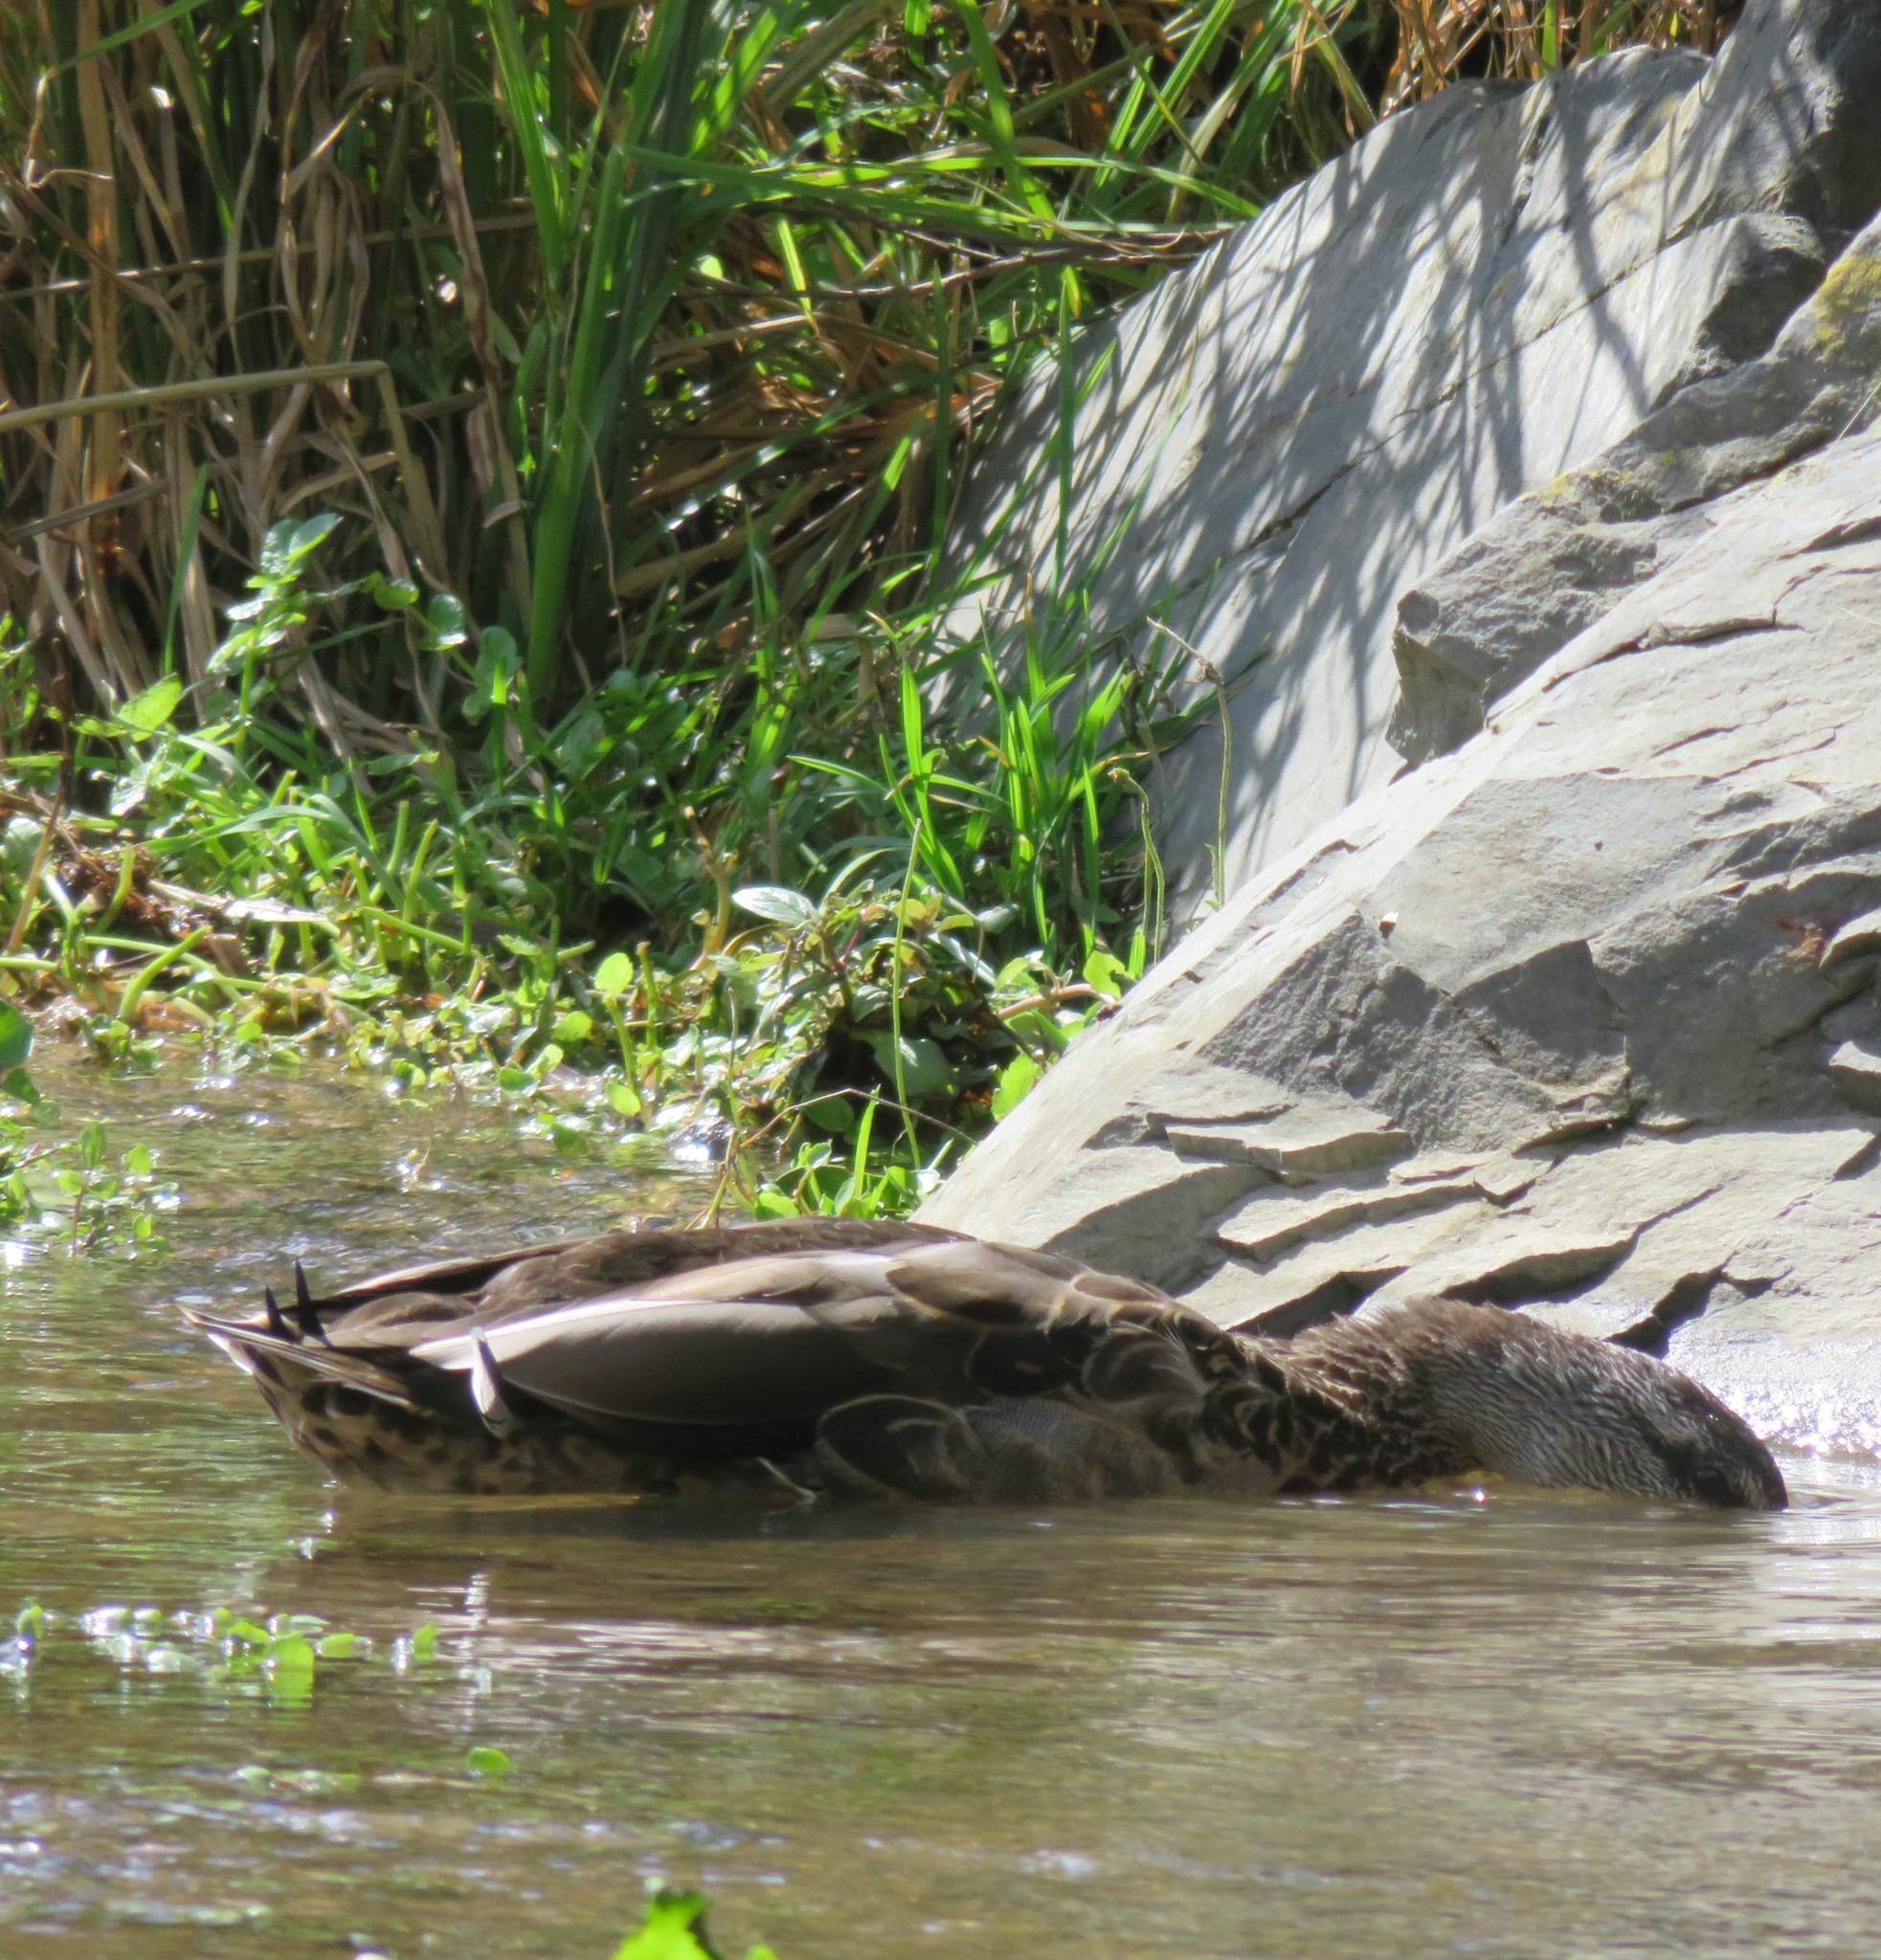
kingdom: Animalia
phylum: Chordata
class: Aves
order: Anseriformes
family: Anatidae
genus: Anas
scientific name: Anas
